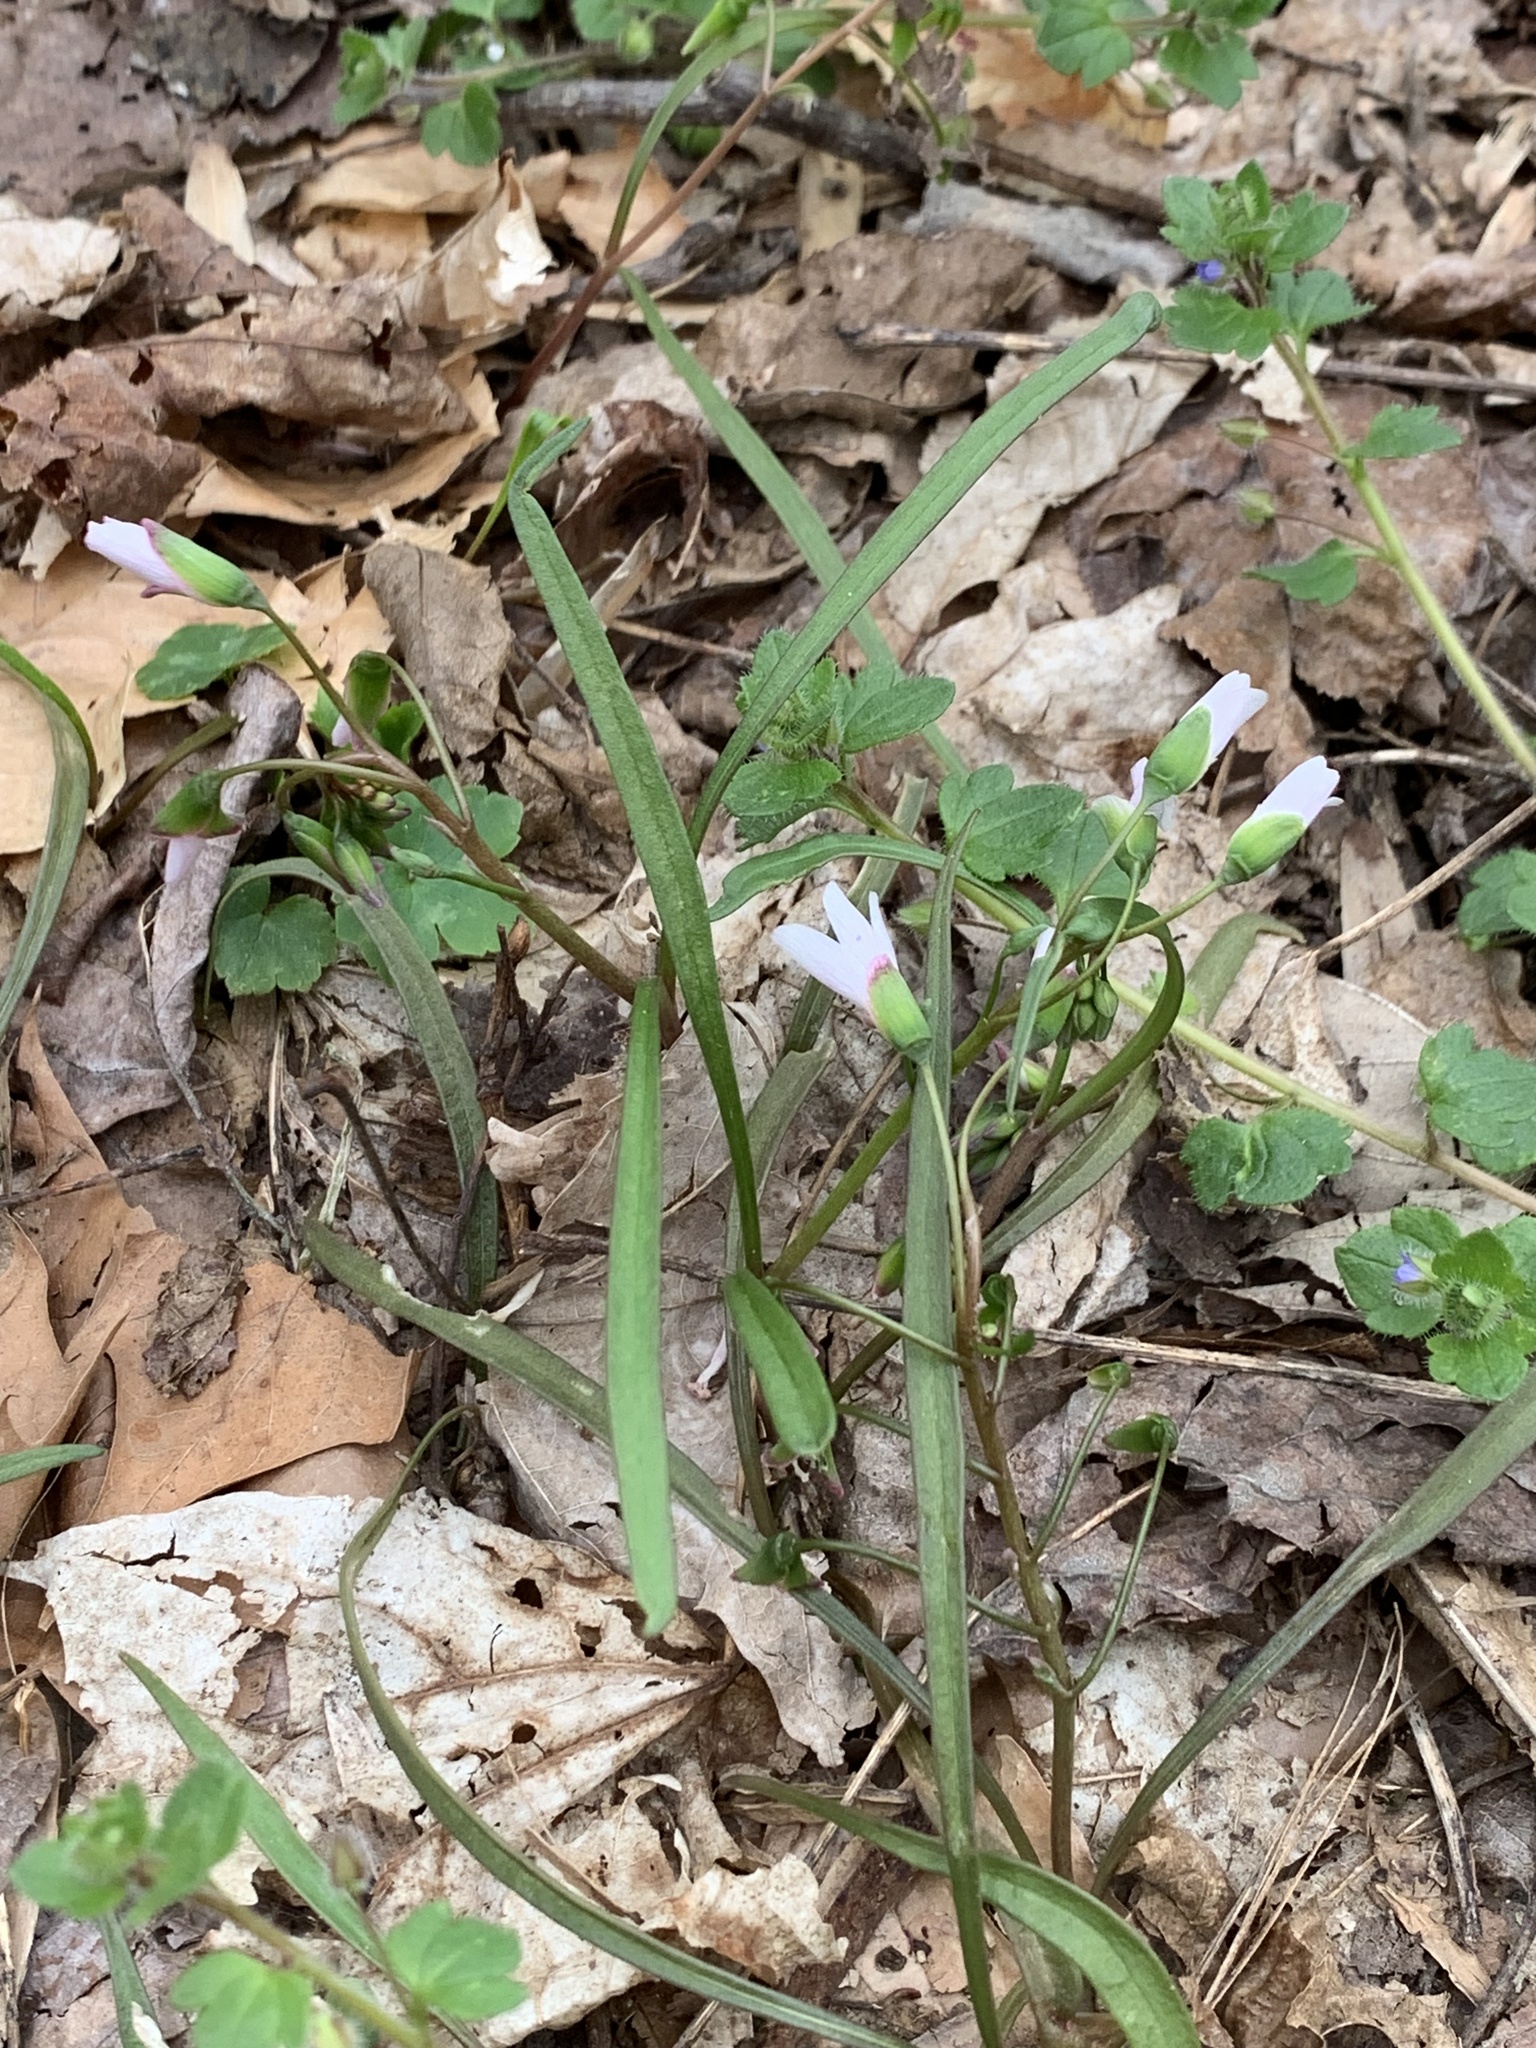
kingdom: Plantae
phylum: Tracheophyta
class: Magnoliopsida
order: Caryophyllales
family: Montiaceae
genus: Claytonia
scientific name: Claytonia virginica
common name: Virginia springbeauty
